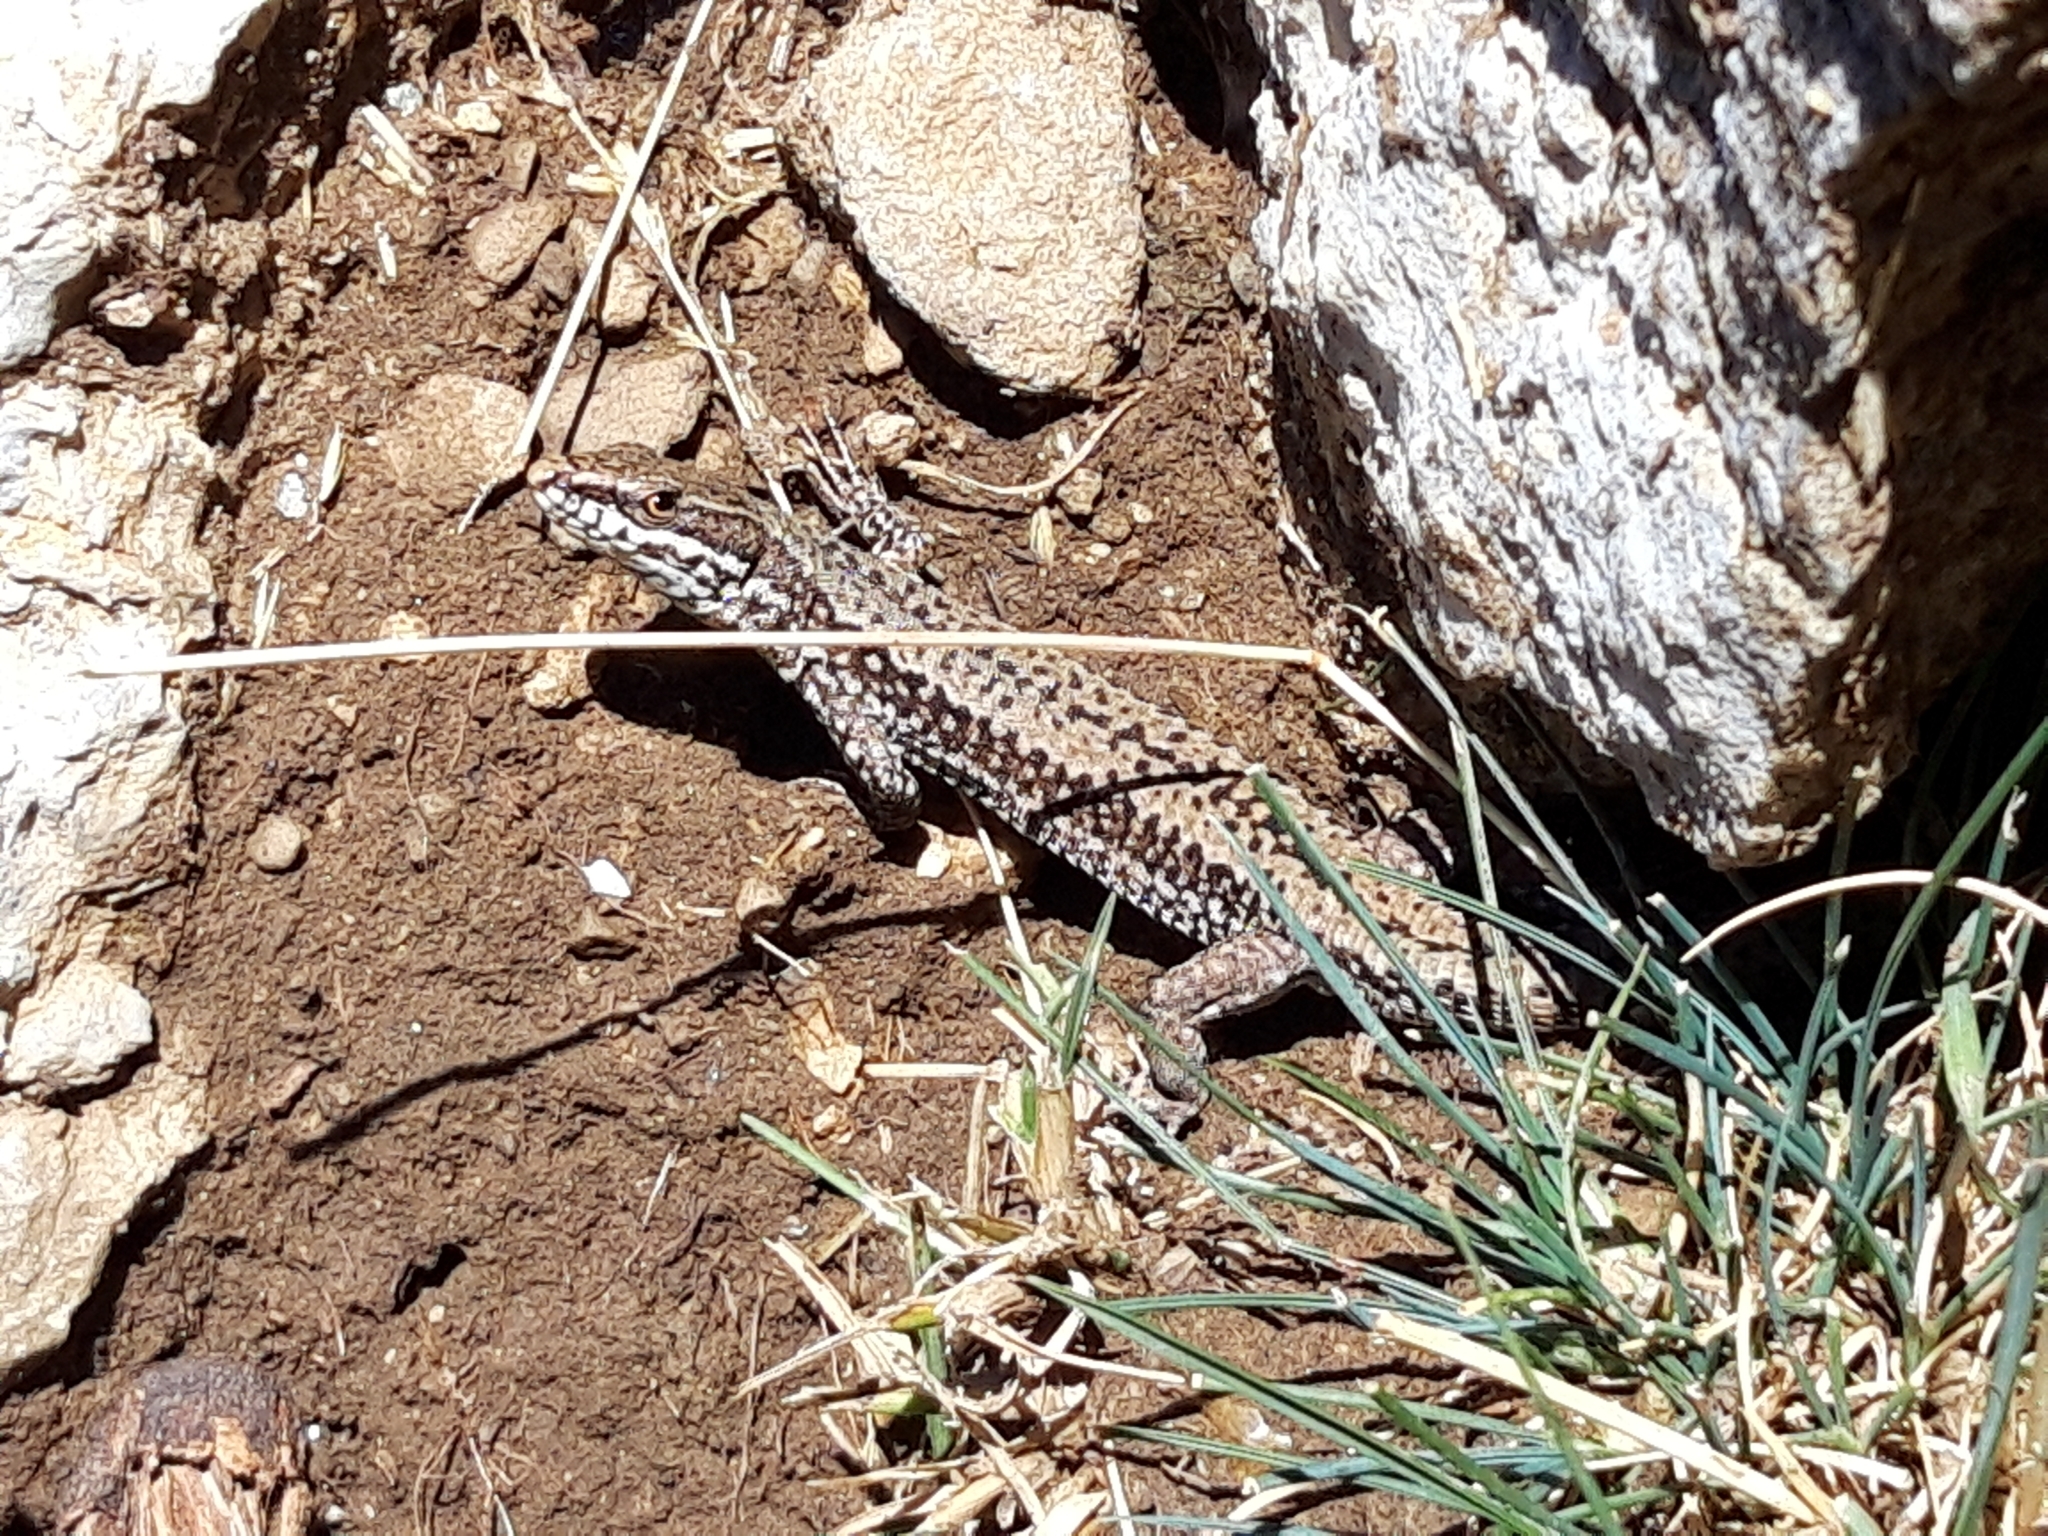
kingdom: Animalia
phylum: Chordata
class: Squamata
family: Lacertidae
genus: Podarcis
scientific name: Podarcis muralis
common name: Common wall lizard
